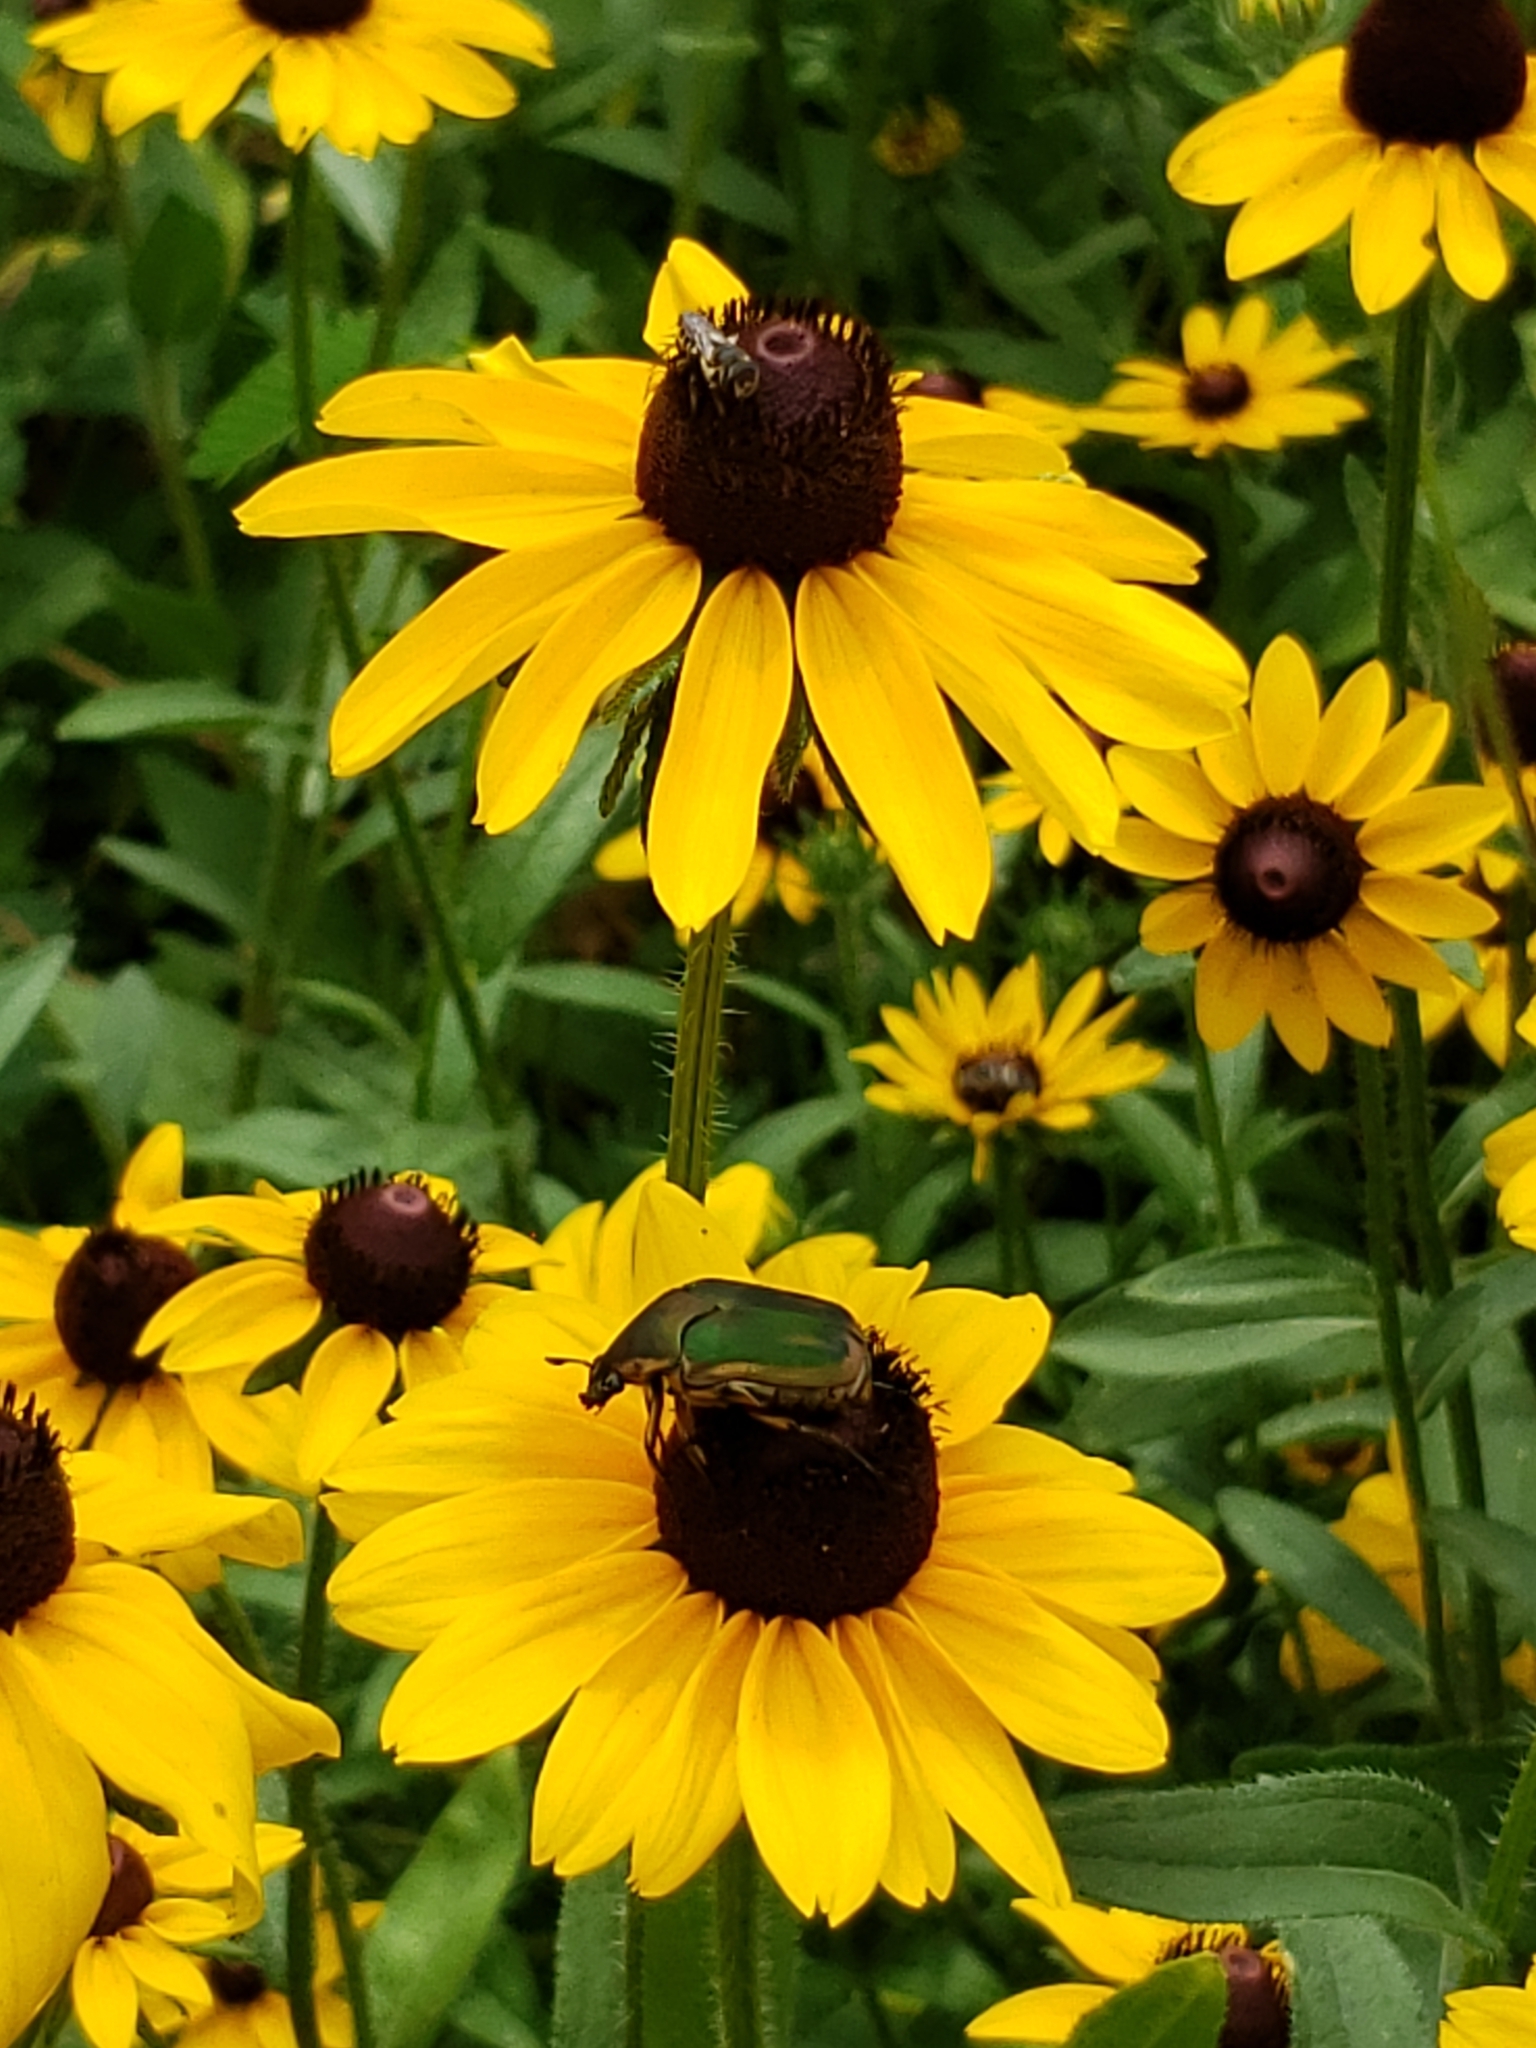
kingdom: Animalia
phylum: Arthropoda
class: Insecta
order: Coleoptera
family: Scarabaeidae
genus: Cotinis
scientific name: Cotinis nitida
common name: Common green june beetle
